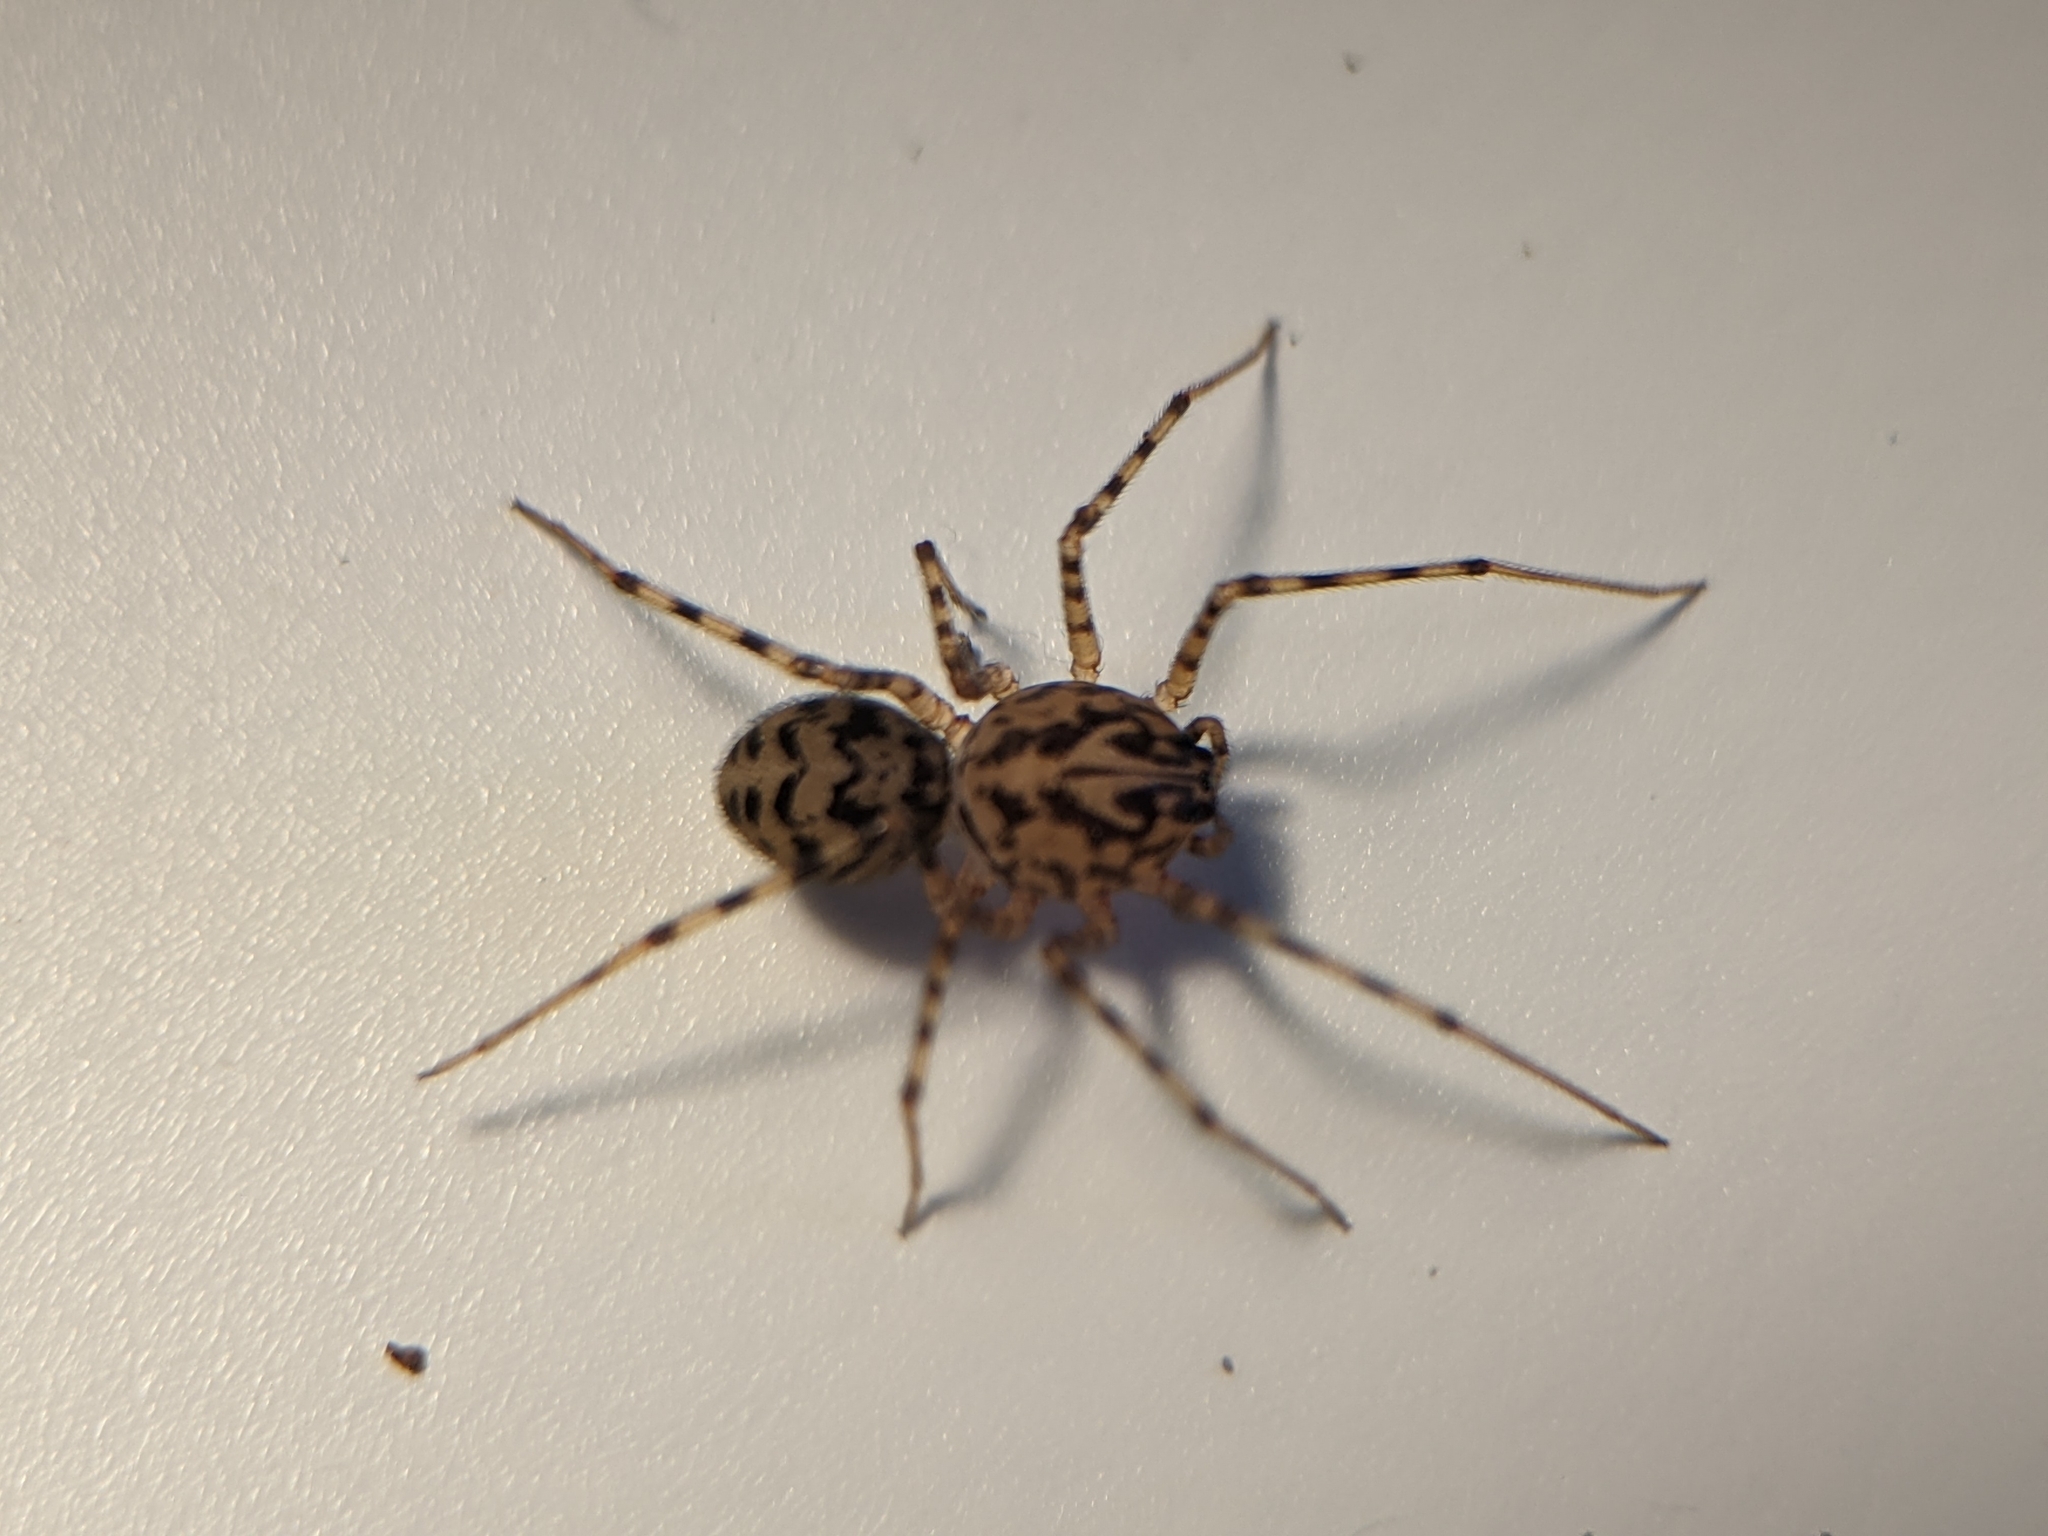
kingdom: Animalia
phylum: Arthropoda
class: Arachnida
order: Araneae
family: Scytodidae
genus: Scytodes
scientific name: Scytodes thoracica
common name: Spitting spider
